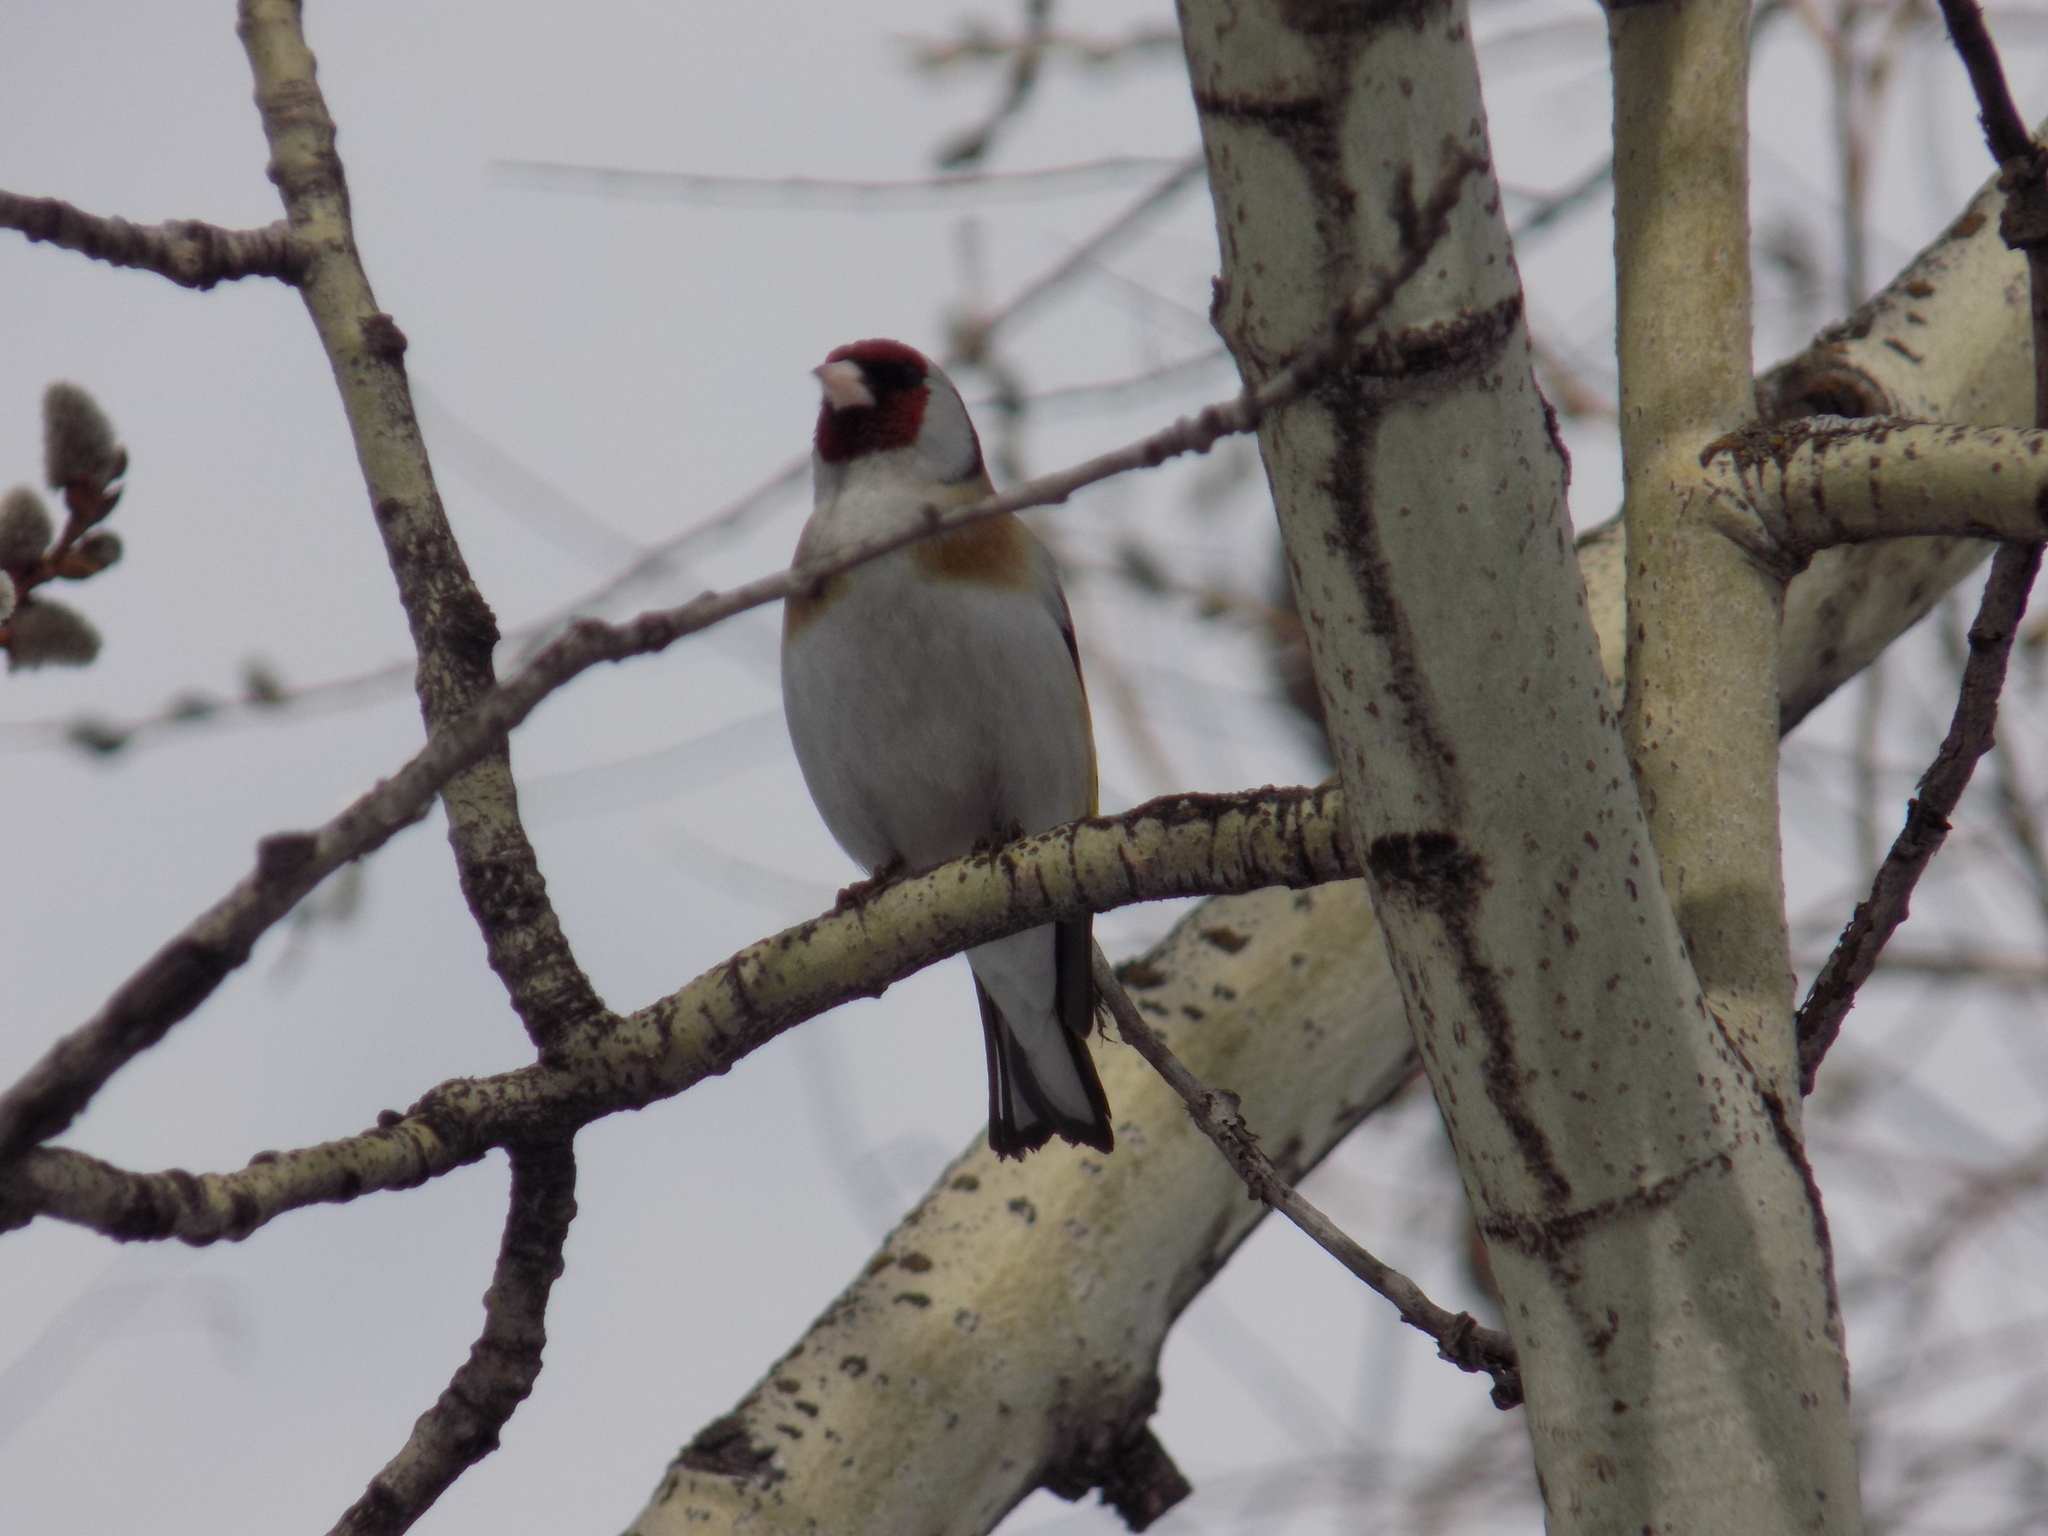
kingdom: Animalia
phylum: Chordata
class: Aves
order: Passeriformes
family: Fringillidae
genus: Carduelis
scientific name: Carduelis carduelis
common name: European goldfinch
